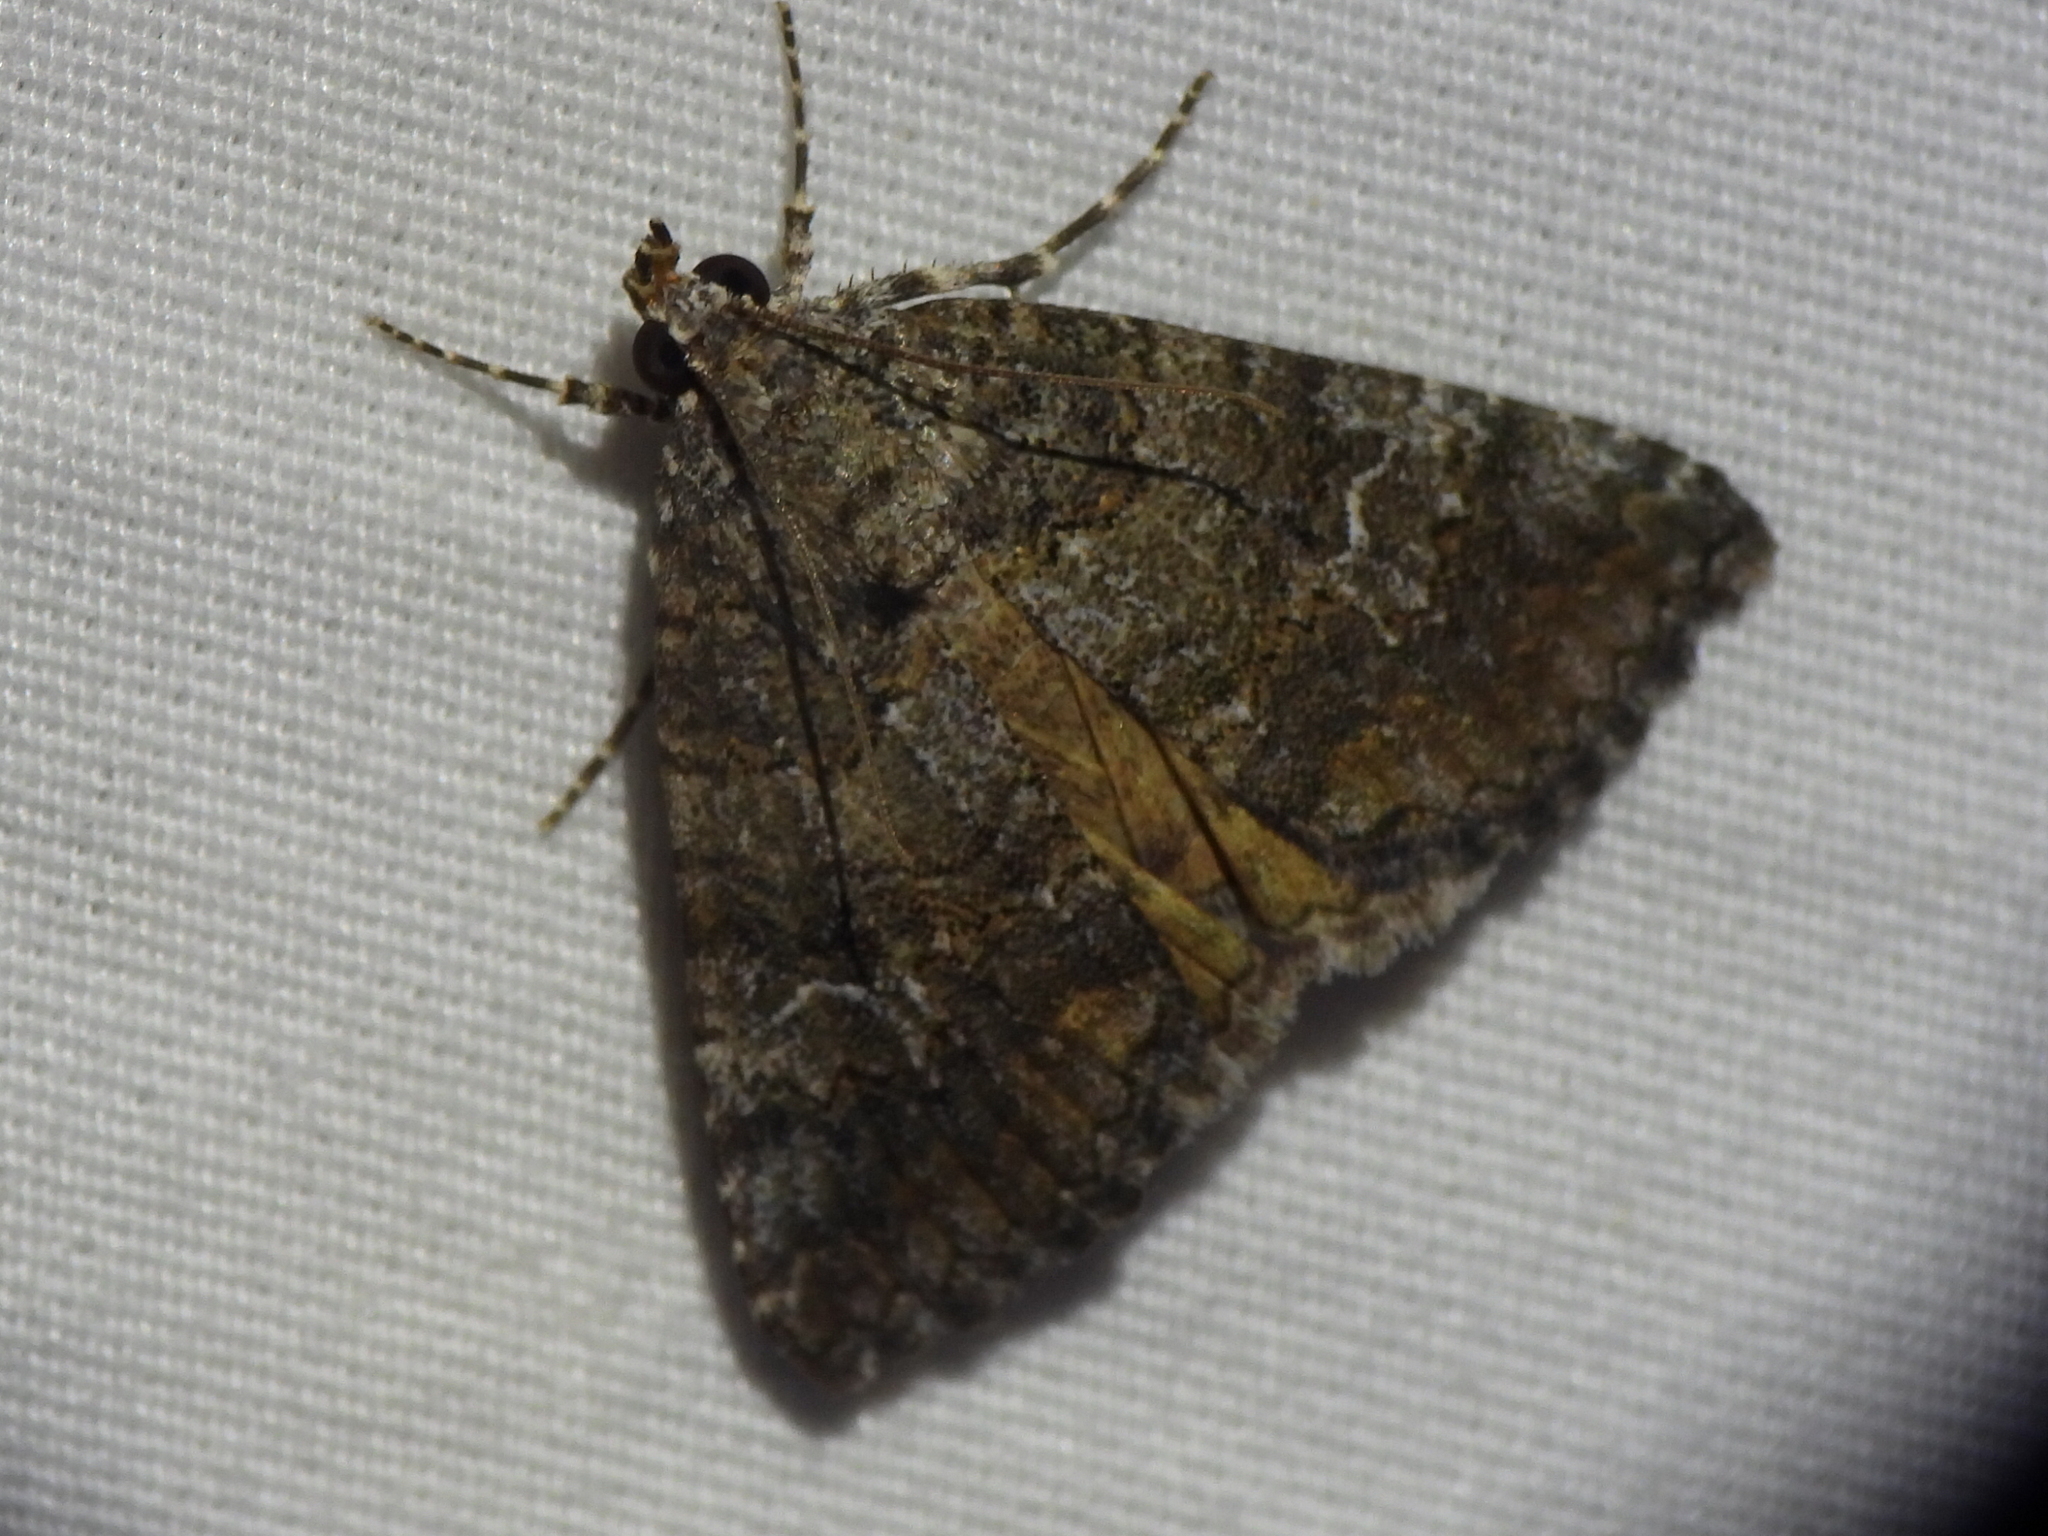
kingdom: Animalia
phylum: Arthropoda
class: Insecta
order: Lepidoptera
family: Erebidae
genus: Eubolina
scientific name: Eubolina impartialis
